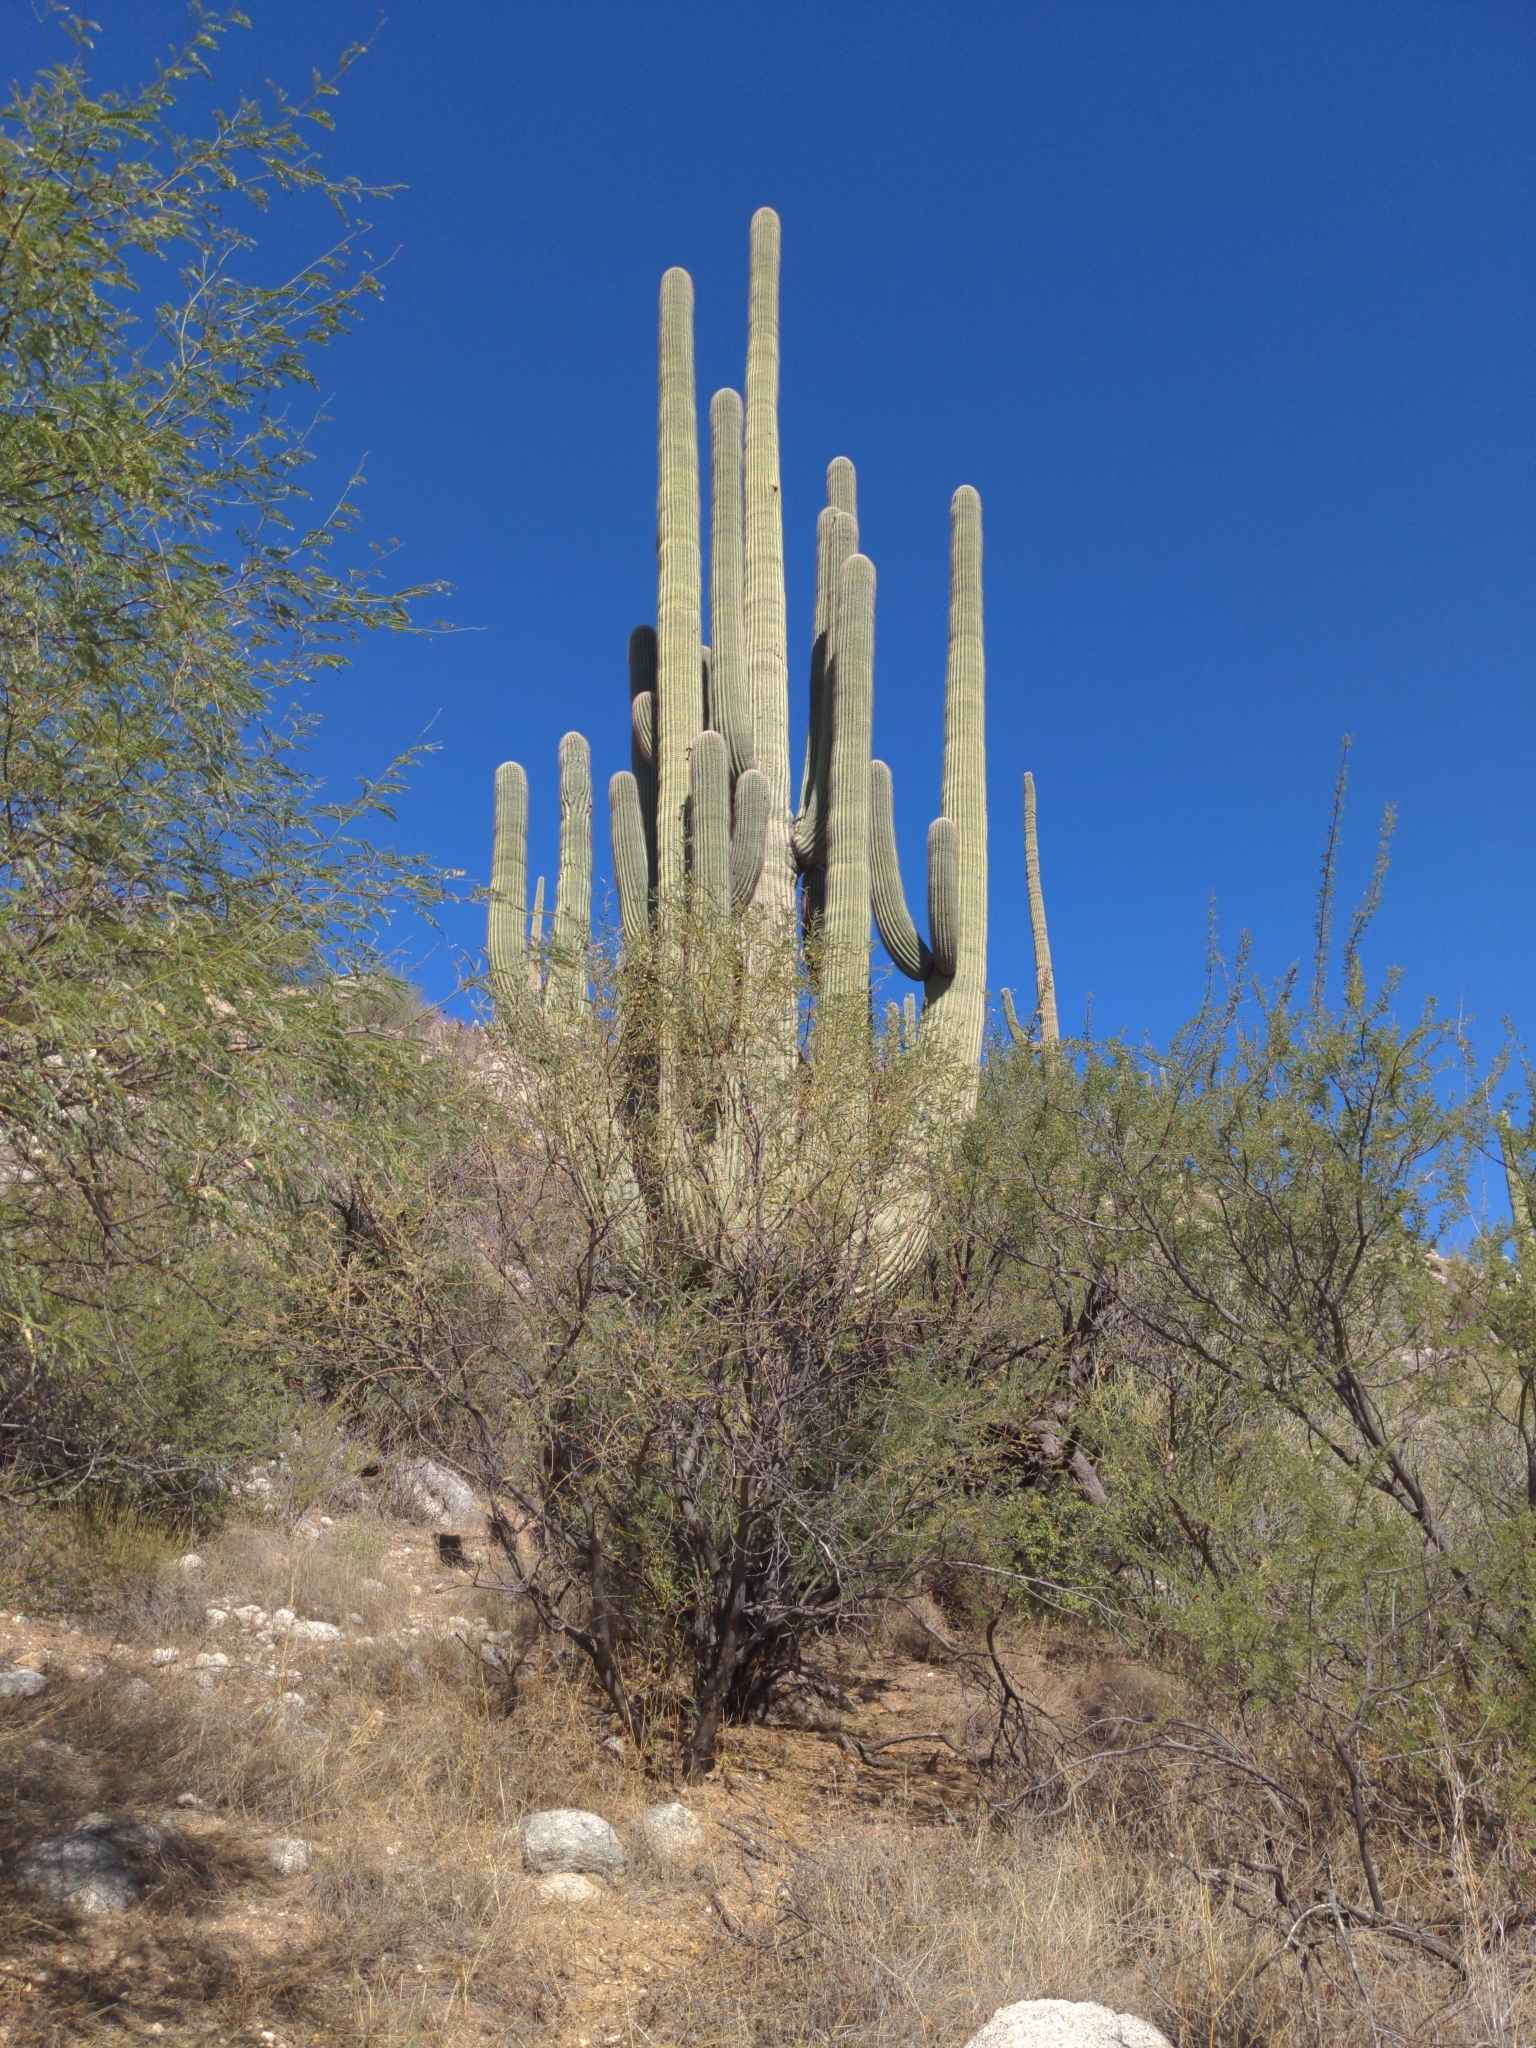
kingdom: Plantae
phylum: Tracheophyta
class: Magnoliopsida
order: Caryophyllales
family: Cactaceae
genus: Carnegiea
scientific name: Carnegiea gigantea
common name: Saguaro
